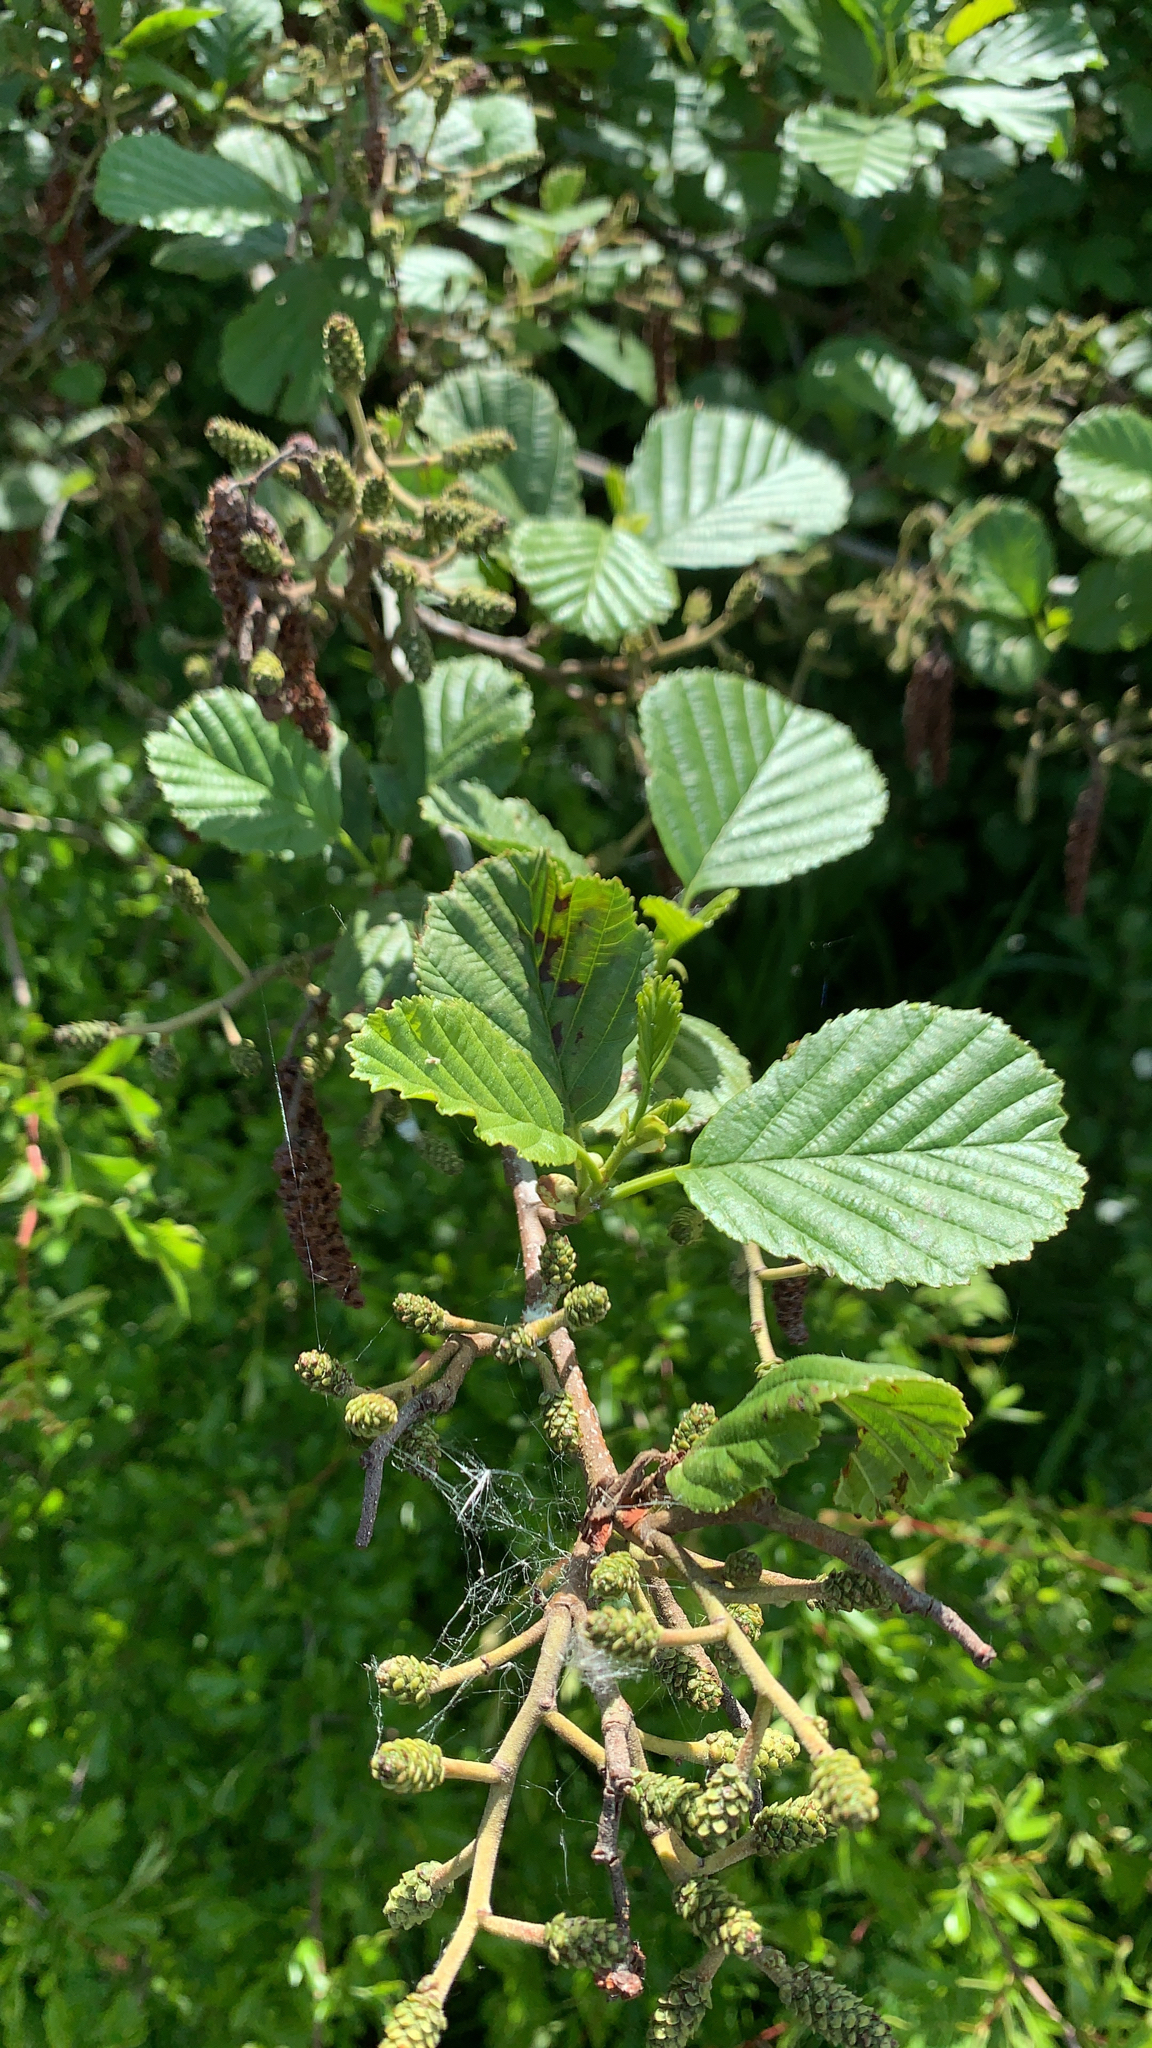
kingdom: Plantae
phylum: Tracheophyta
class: Magnoliopsida
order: Fagales
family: Betulaceae
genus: Alnus
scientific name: Alnus glutinosa
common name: Black alder
